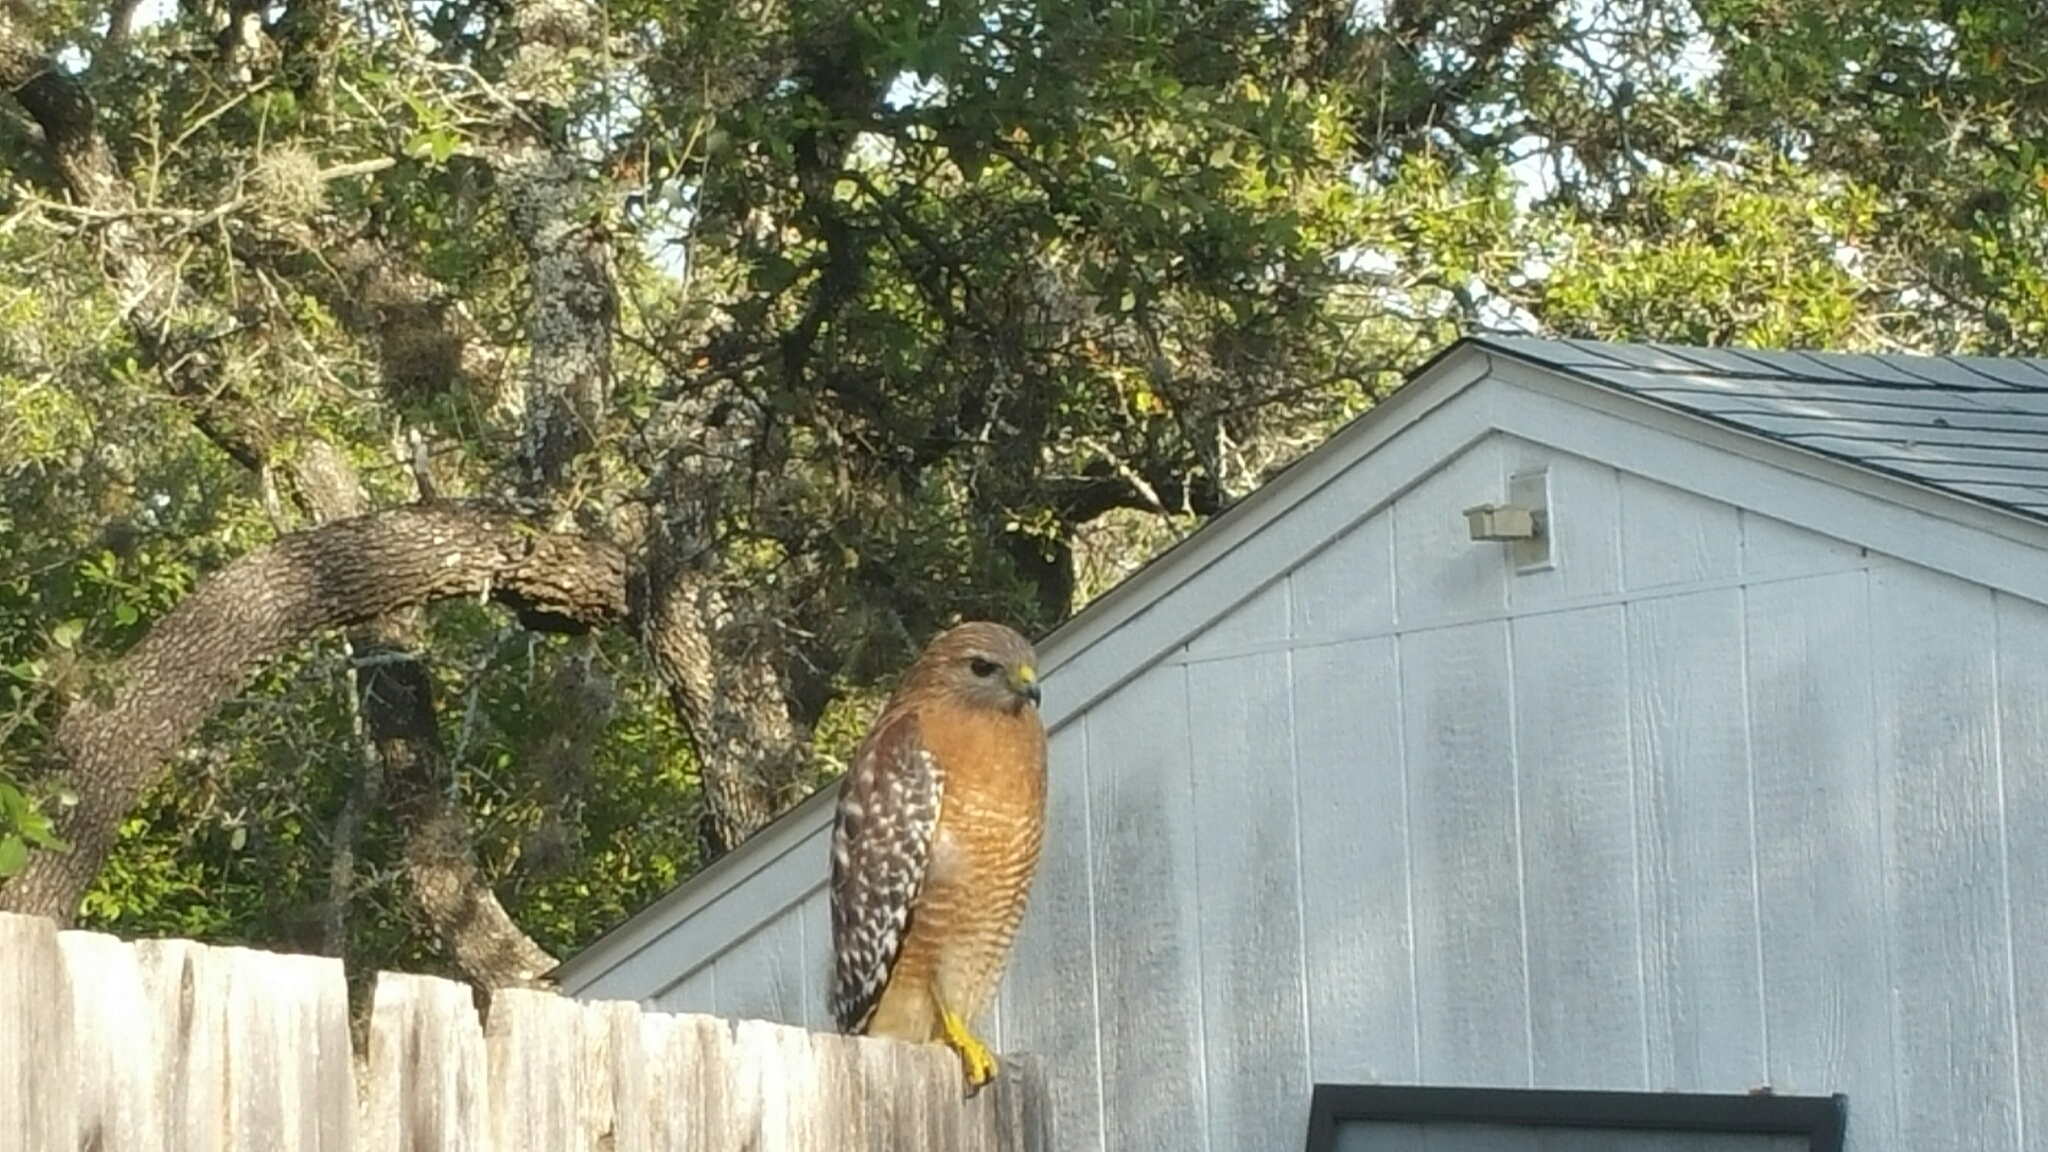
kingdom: Animalia
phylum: Chordata
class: Aves
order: Accipitriformes
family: Accipitridae
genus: Buteo
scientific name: Buteo lineatus
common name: Red-shouldered hawk
